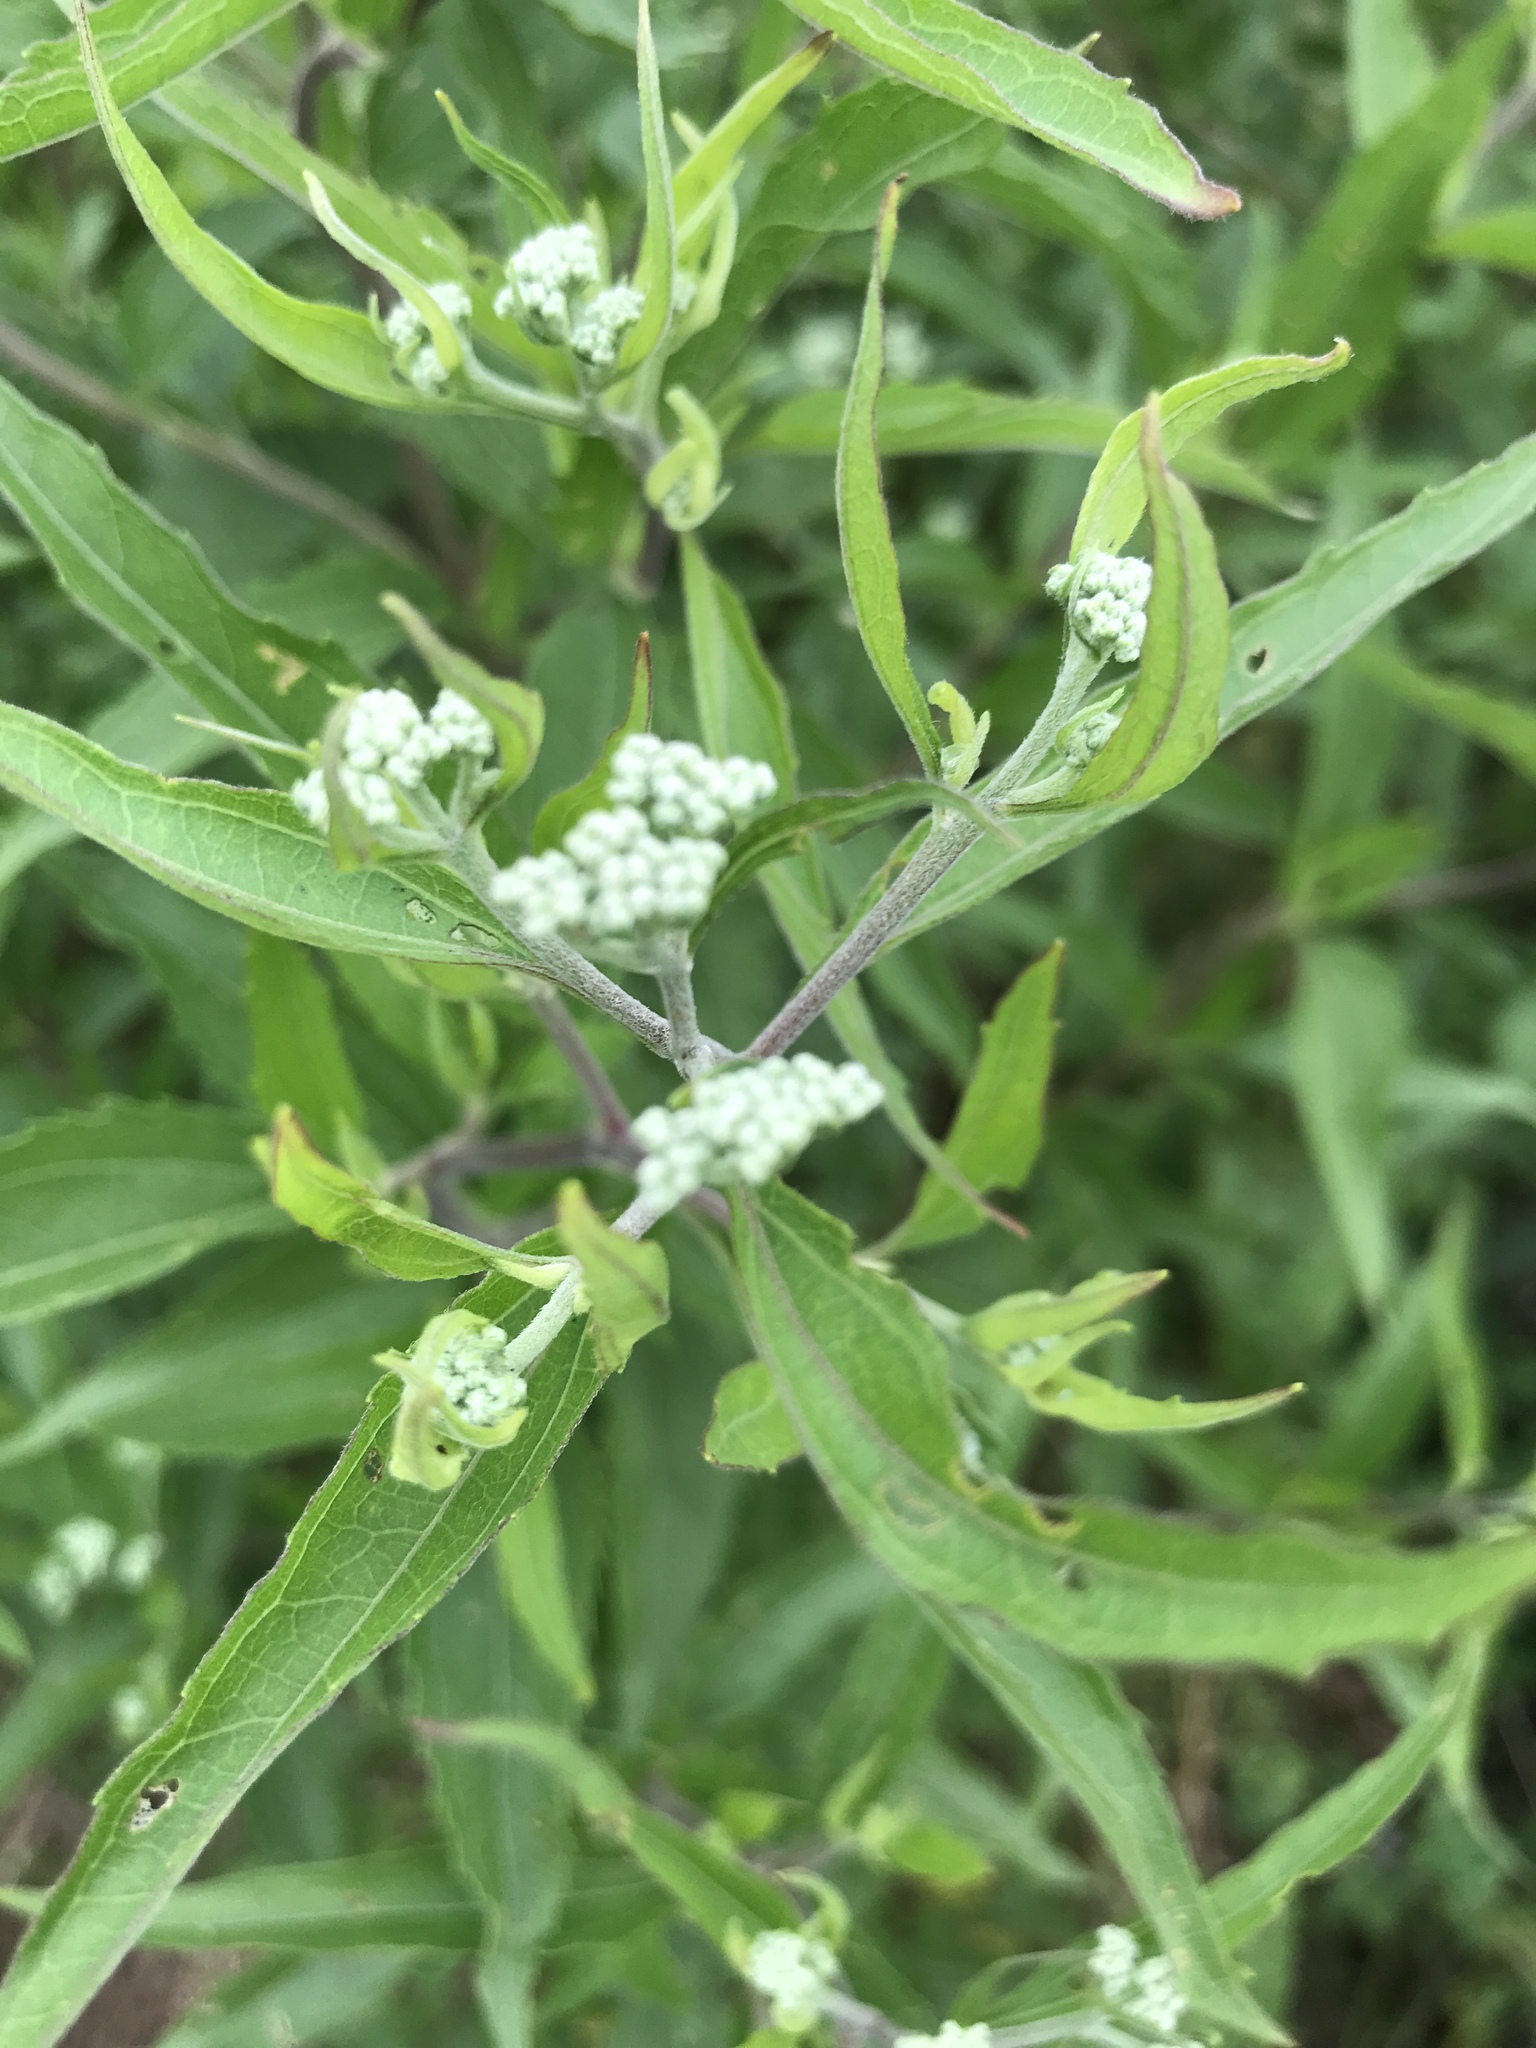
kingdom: Plantae
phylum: Tracheophyta
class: Magnoliopsida
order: Asterales
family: Asteraceae
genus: Eupatorium
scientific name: Eupatorium serotinum
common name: Late boneset
